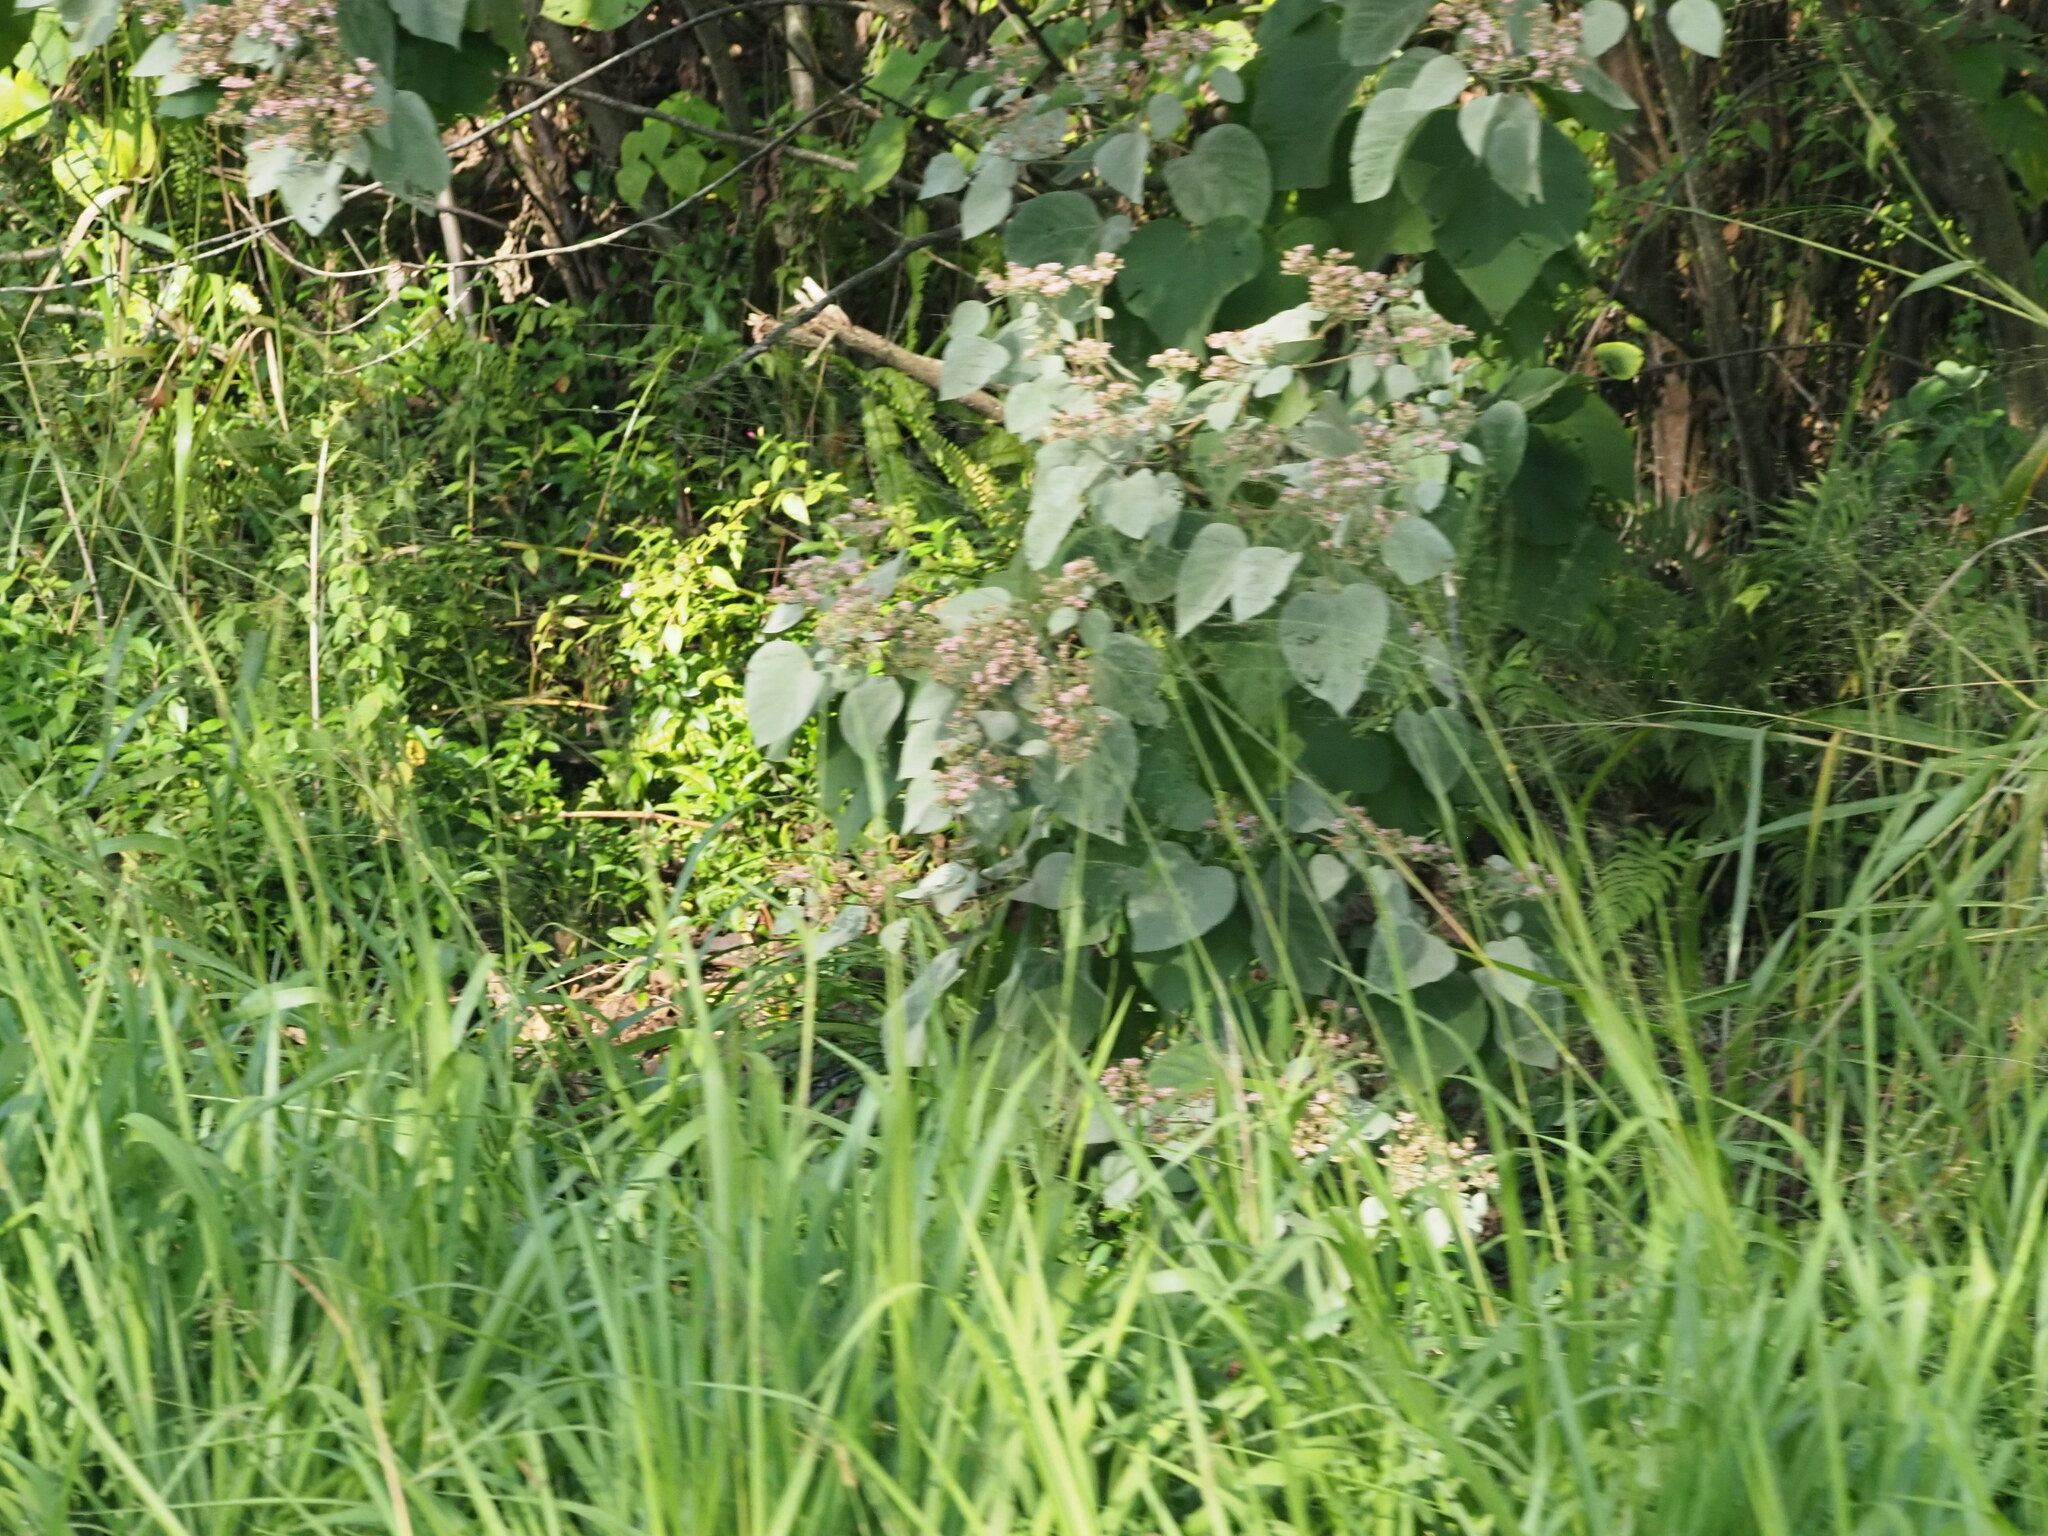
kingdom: Plantae
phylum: Tracheophyta
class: Magnoliopsida
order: Malvales
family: Malvaceae
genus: Melochia
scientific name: Melochia umbellata
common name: Gunpowder tree
